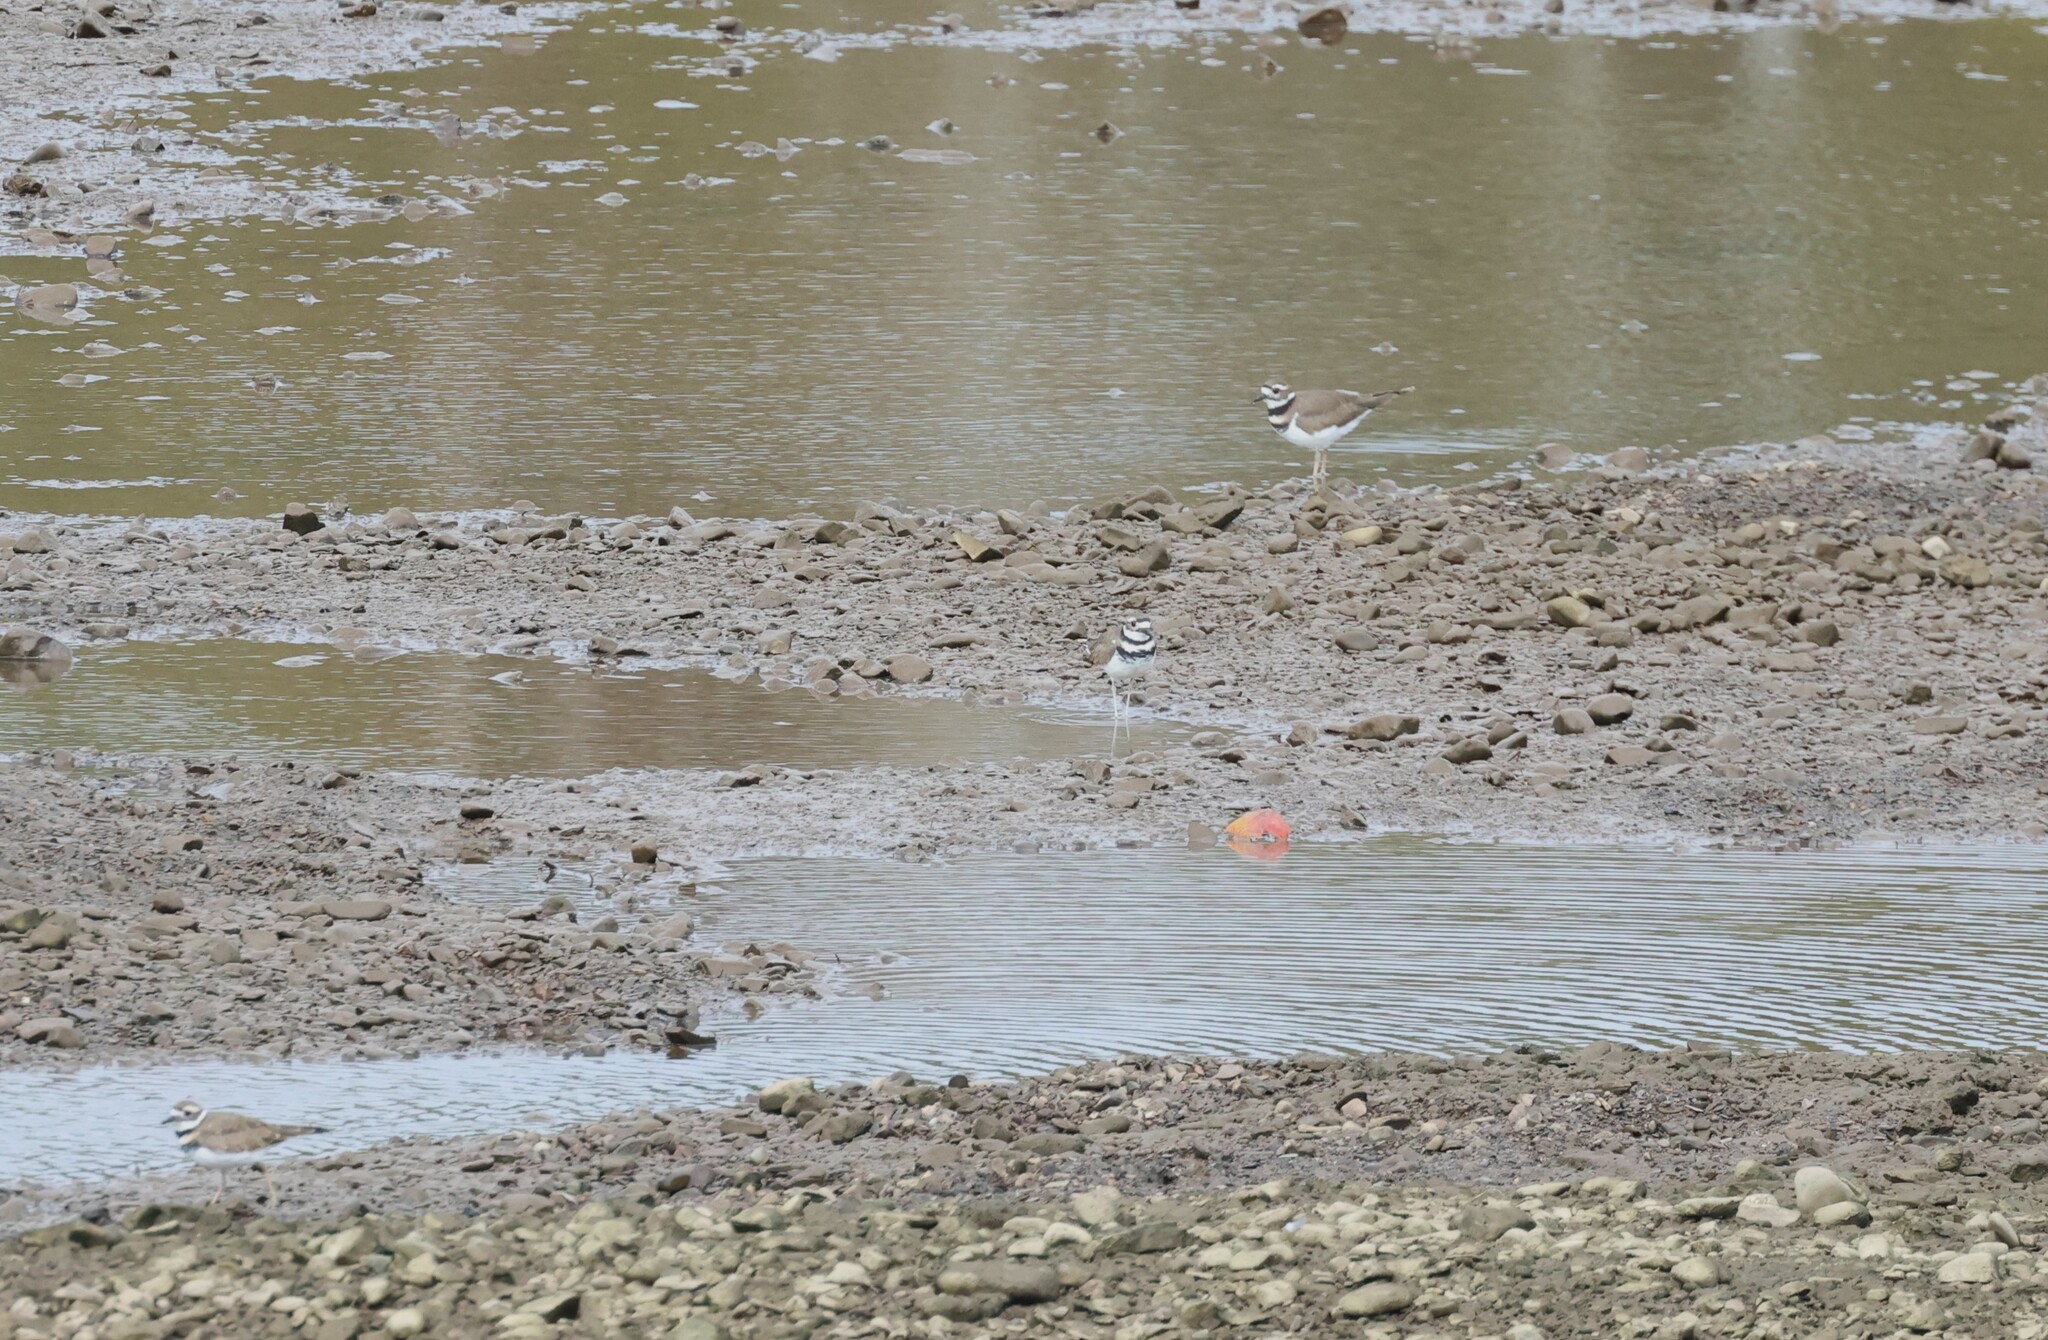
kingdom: Animalia
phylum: Chordata
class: Aves
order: Charadriiformes
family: Charadriidae
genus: Charadrius
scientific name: Charadrius vociferus
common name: Killdeer
